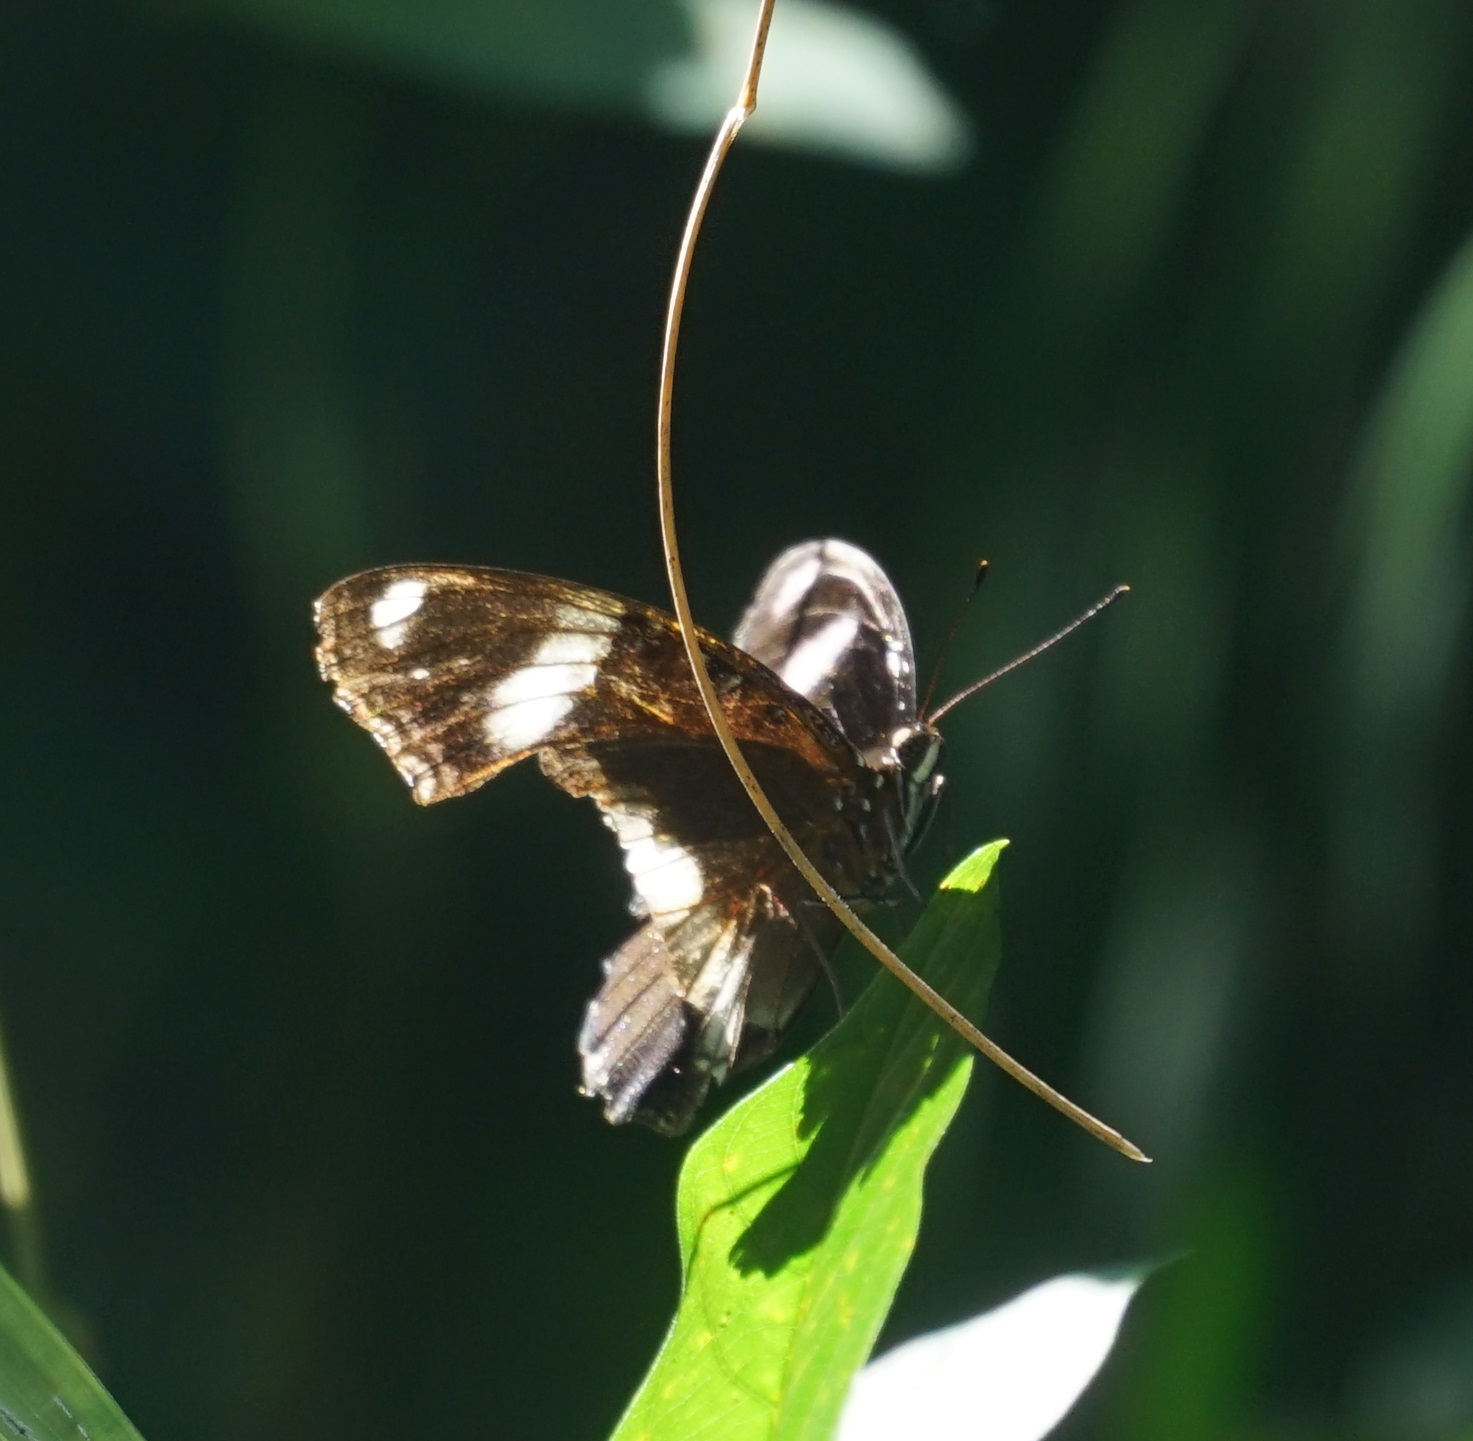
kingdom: Animalia
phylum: Arthropoda
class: Insecta
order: Lepidoptera
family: Nymphalidae
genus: Hypolimnas
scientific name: Hypolimnas bolina
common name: Great eggfly
